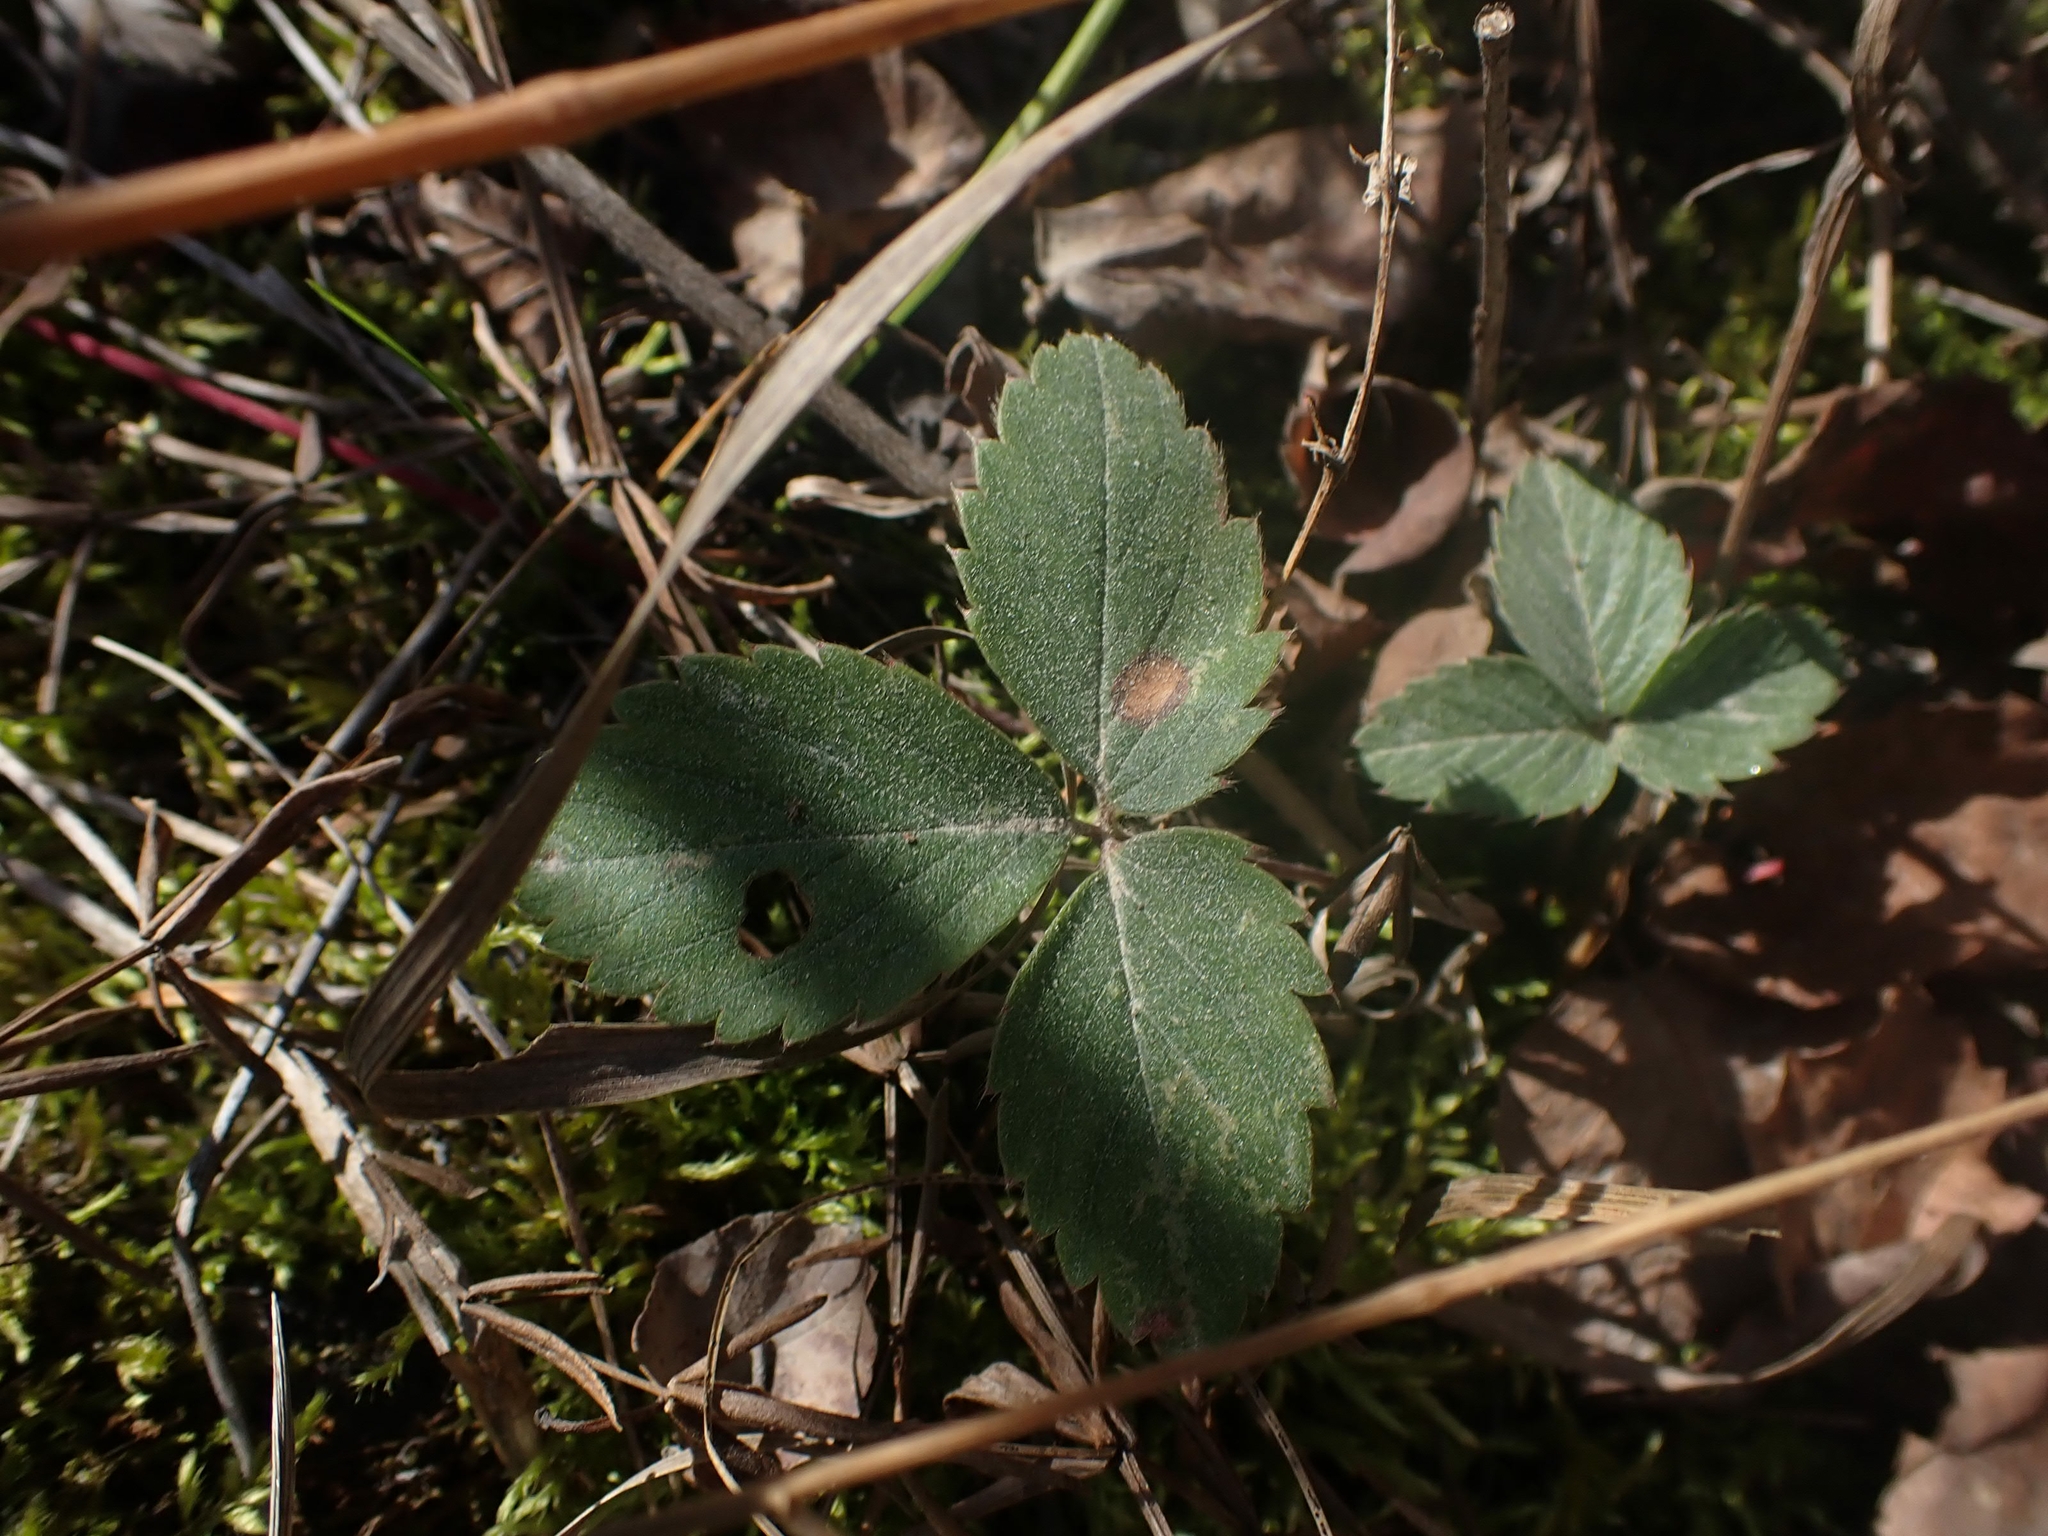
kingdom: Plantae
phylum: Tracheophyta
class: Magnoliopsida
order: Rosales
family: Rosaceae
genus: Fragaria
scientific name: Fragaria virginiana
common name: Thickleaved wild strawberry
